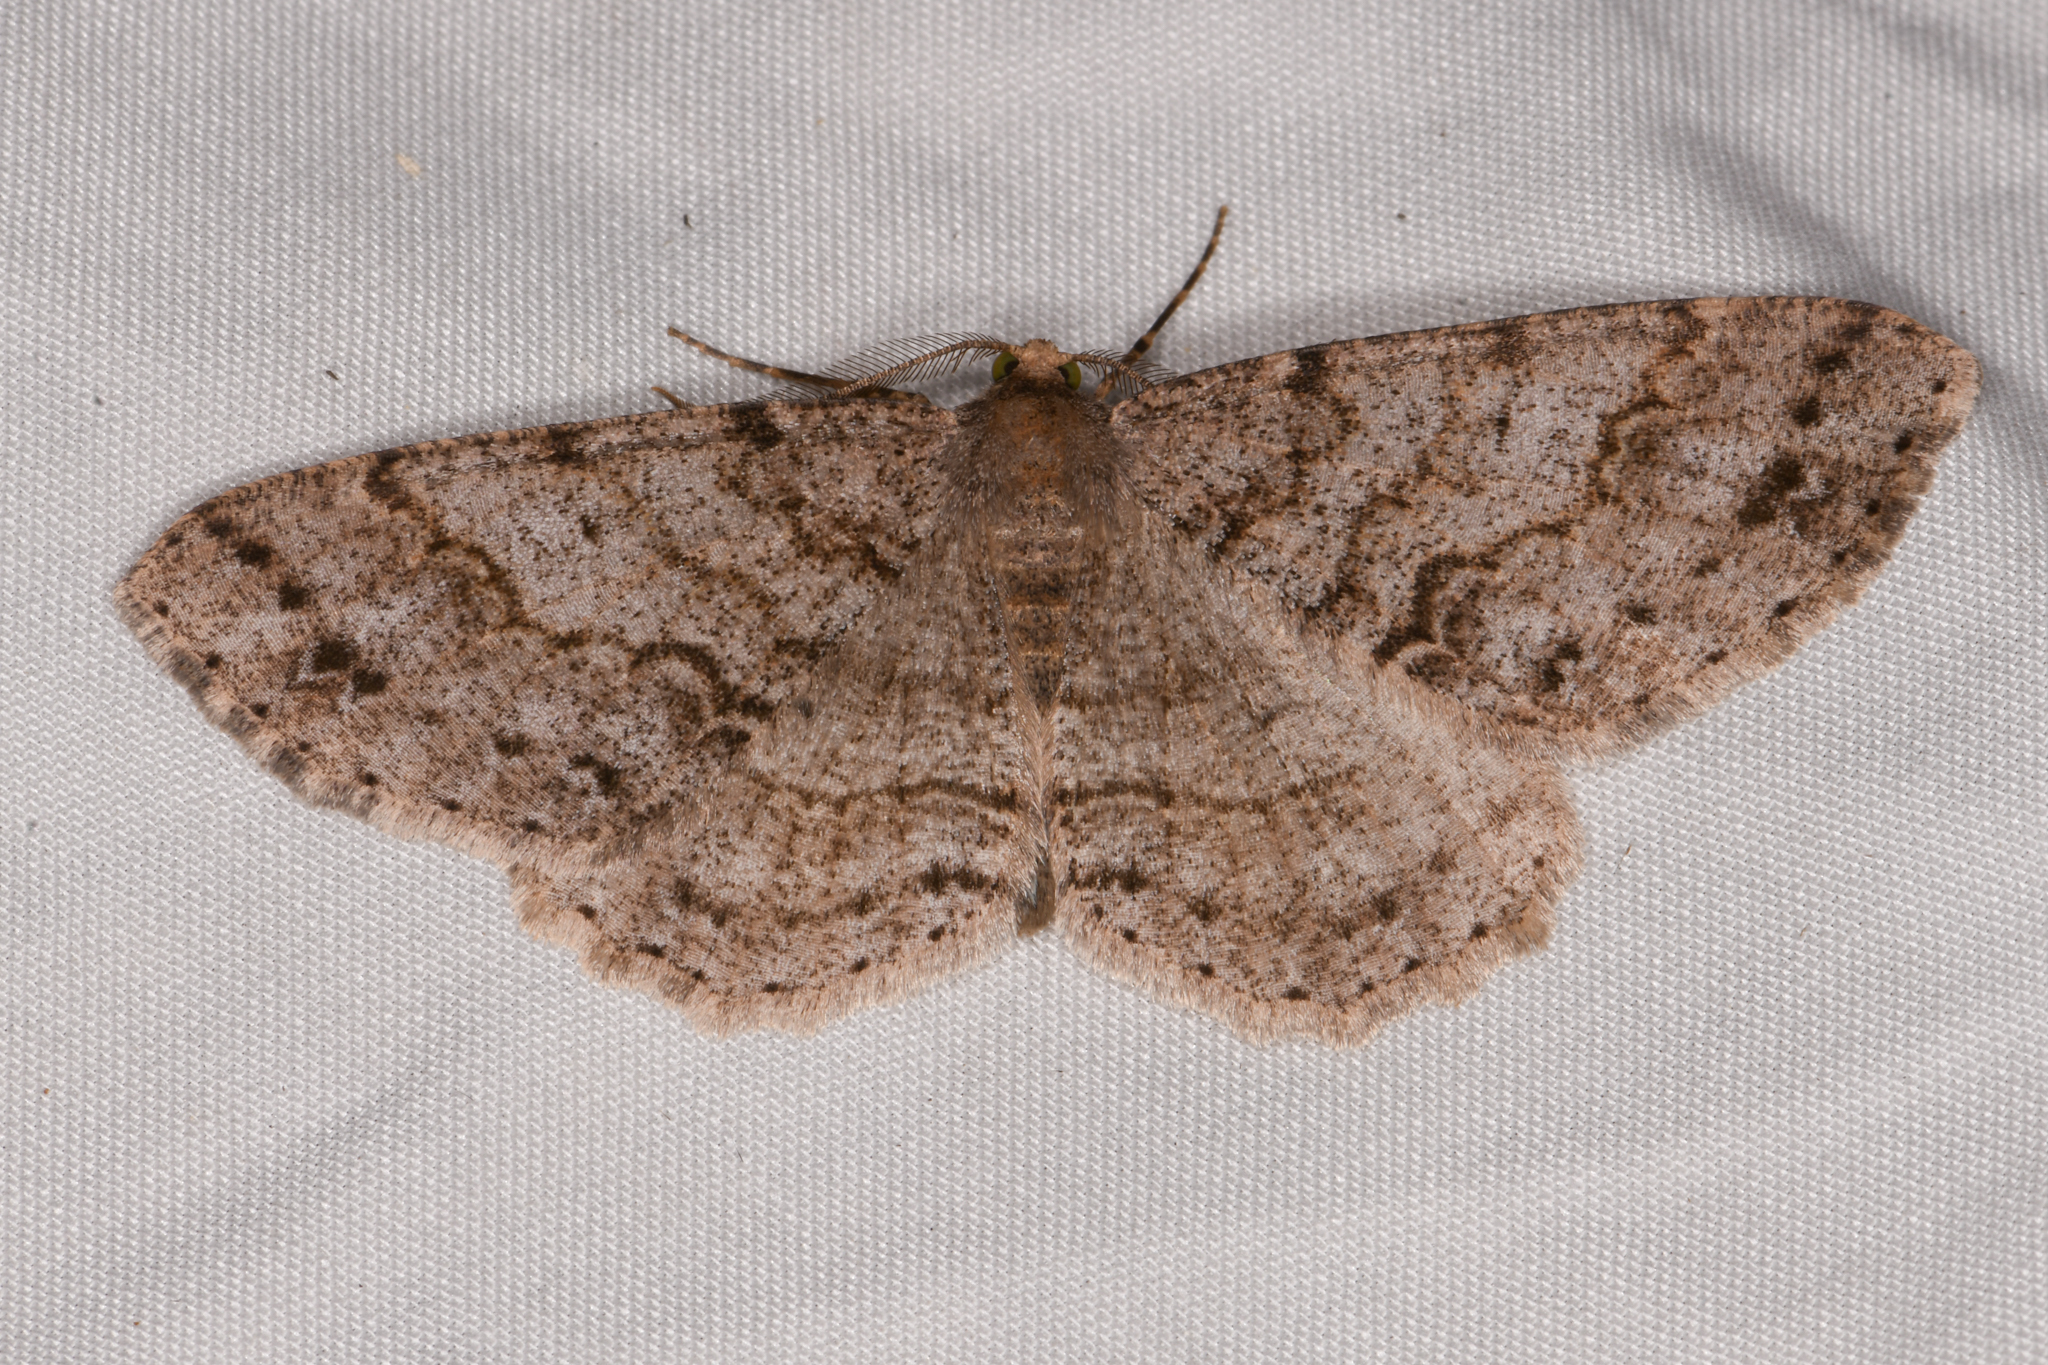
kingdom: Animalia
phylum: Arthropoda
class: Insecta
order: Lepidoptera
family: Geometridae
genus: Melanolophia
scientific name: Melanolophia imitata
